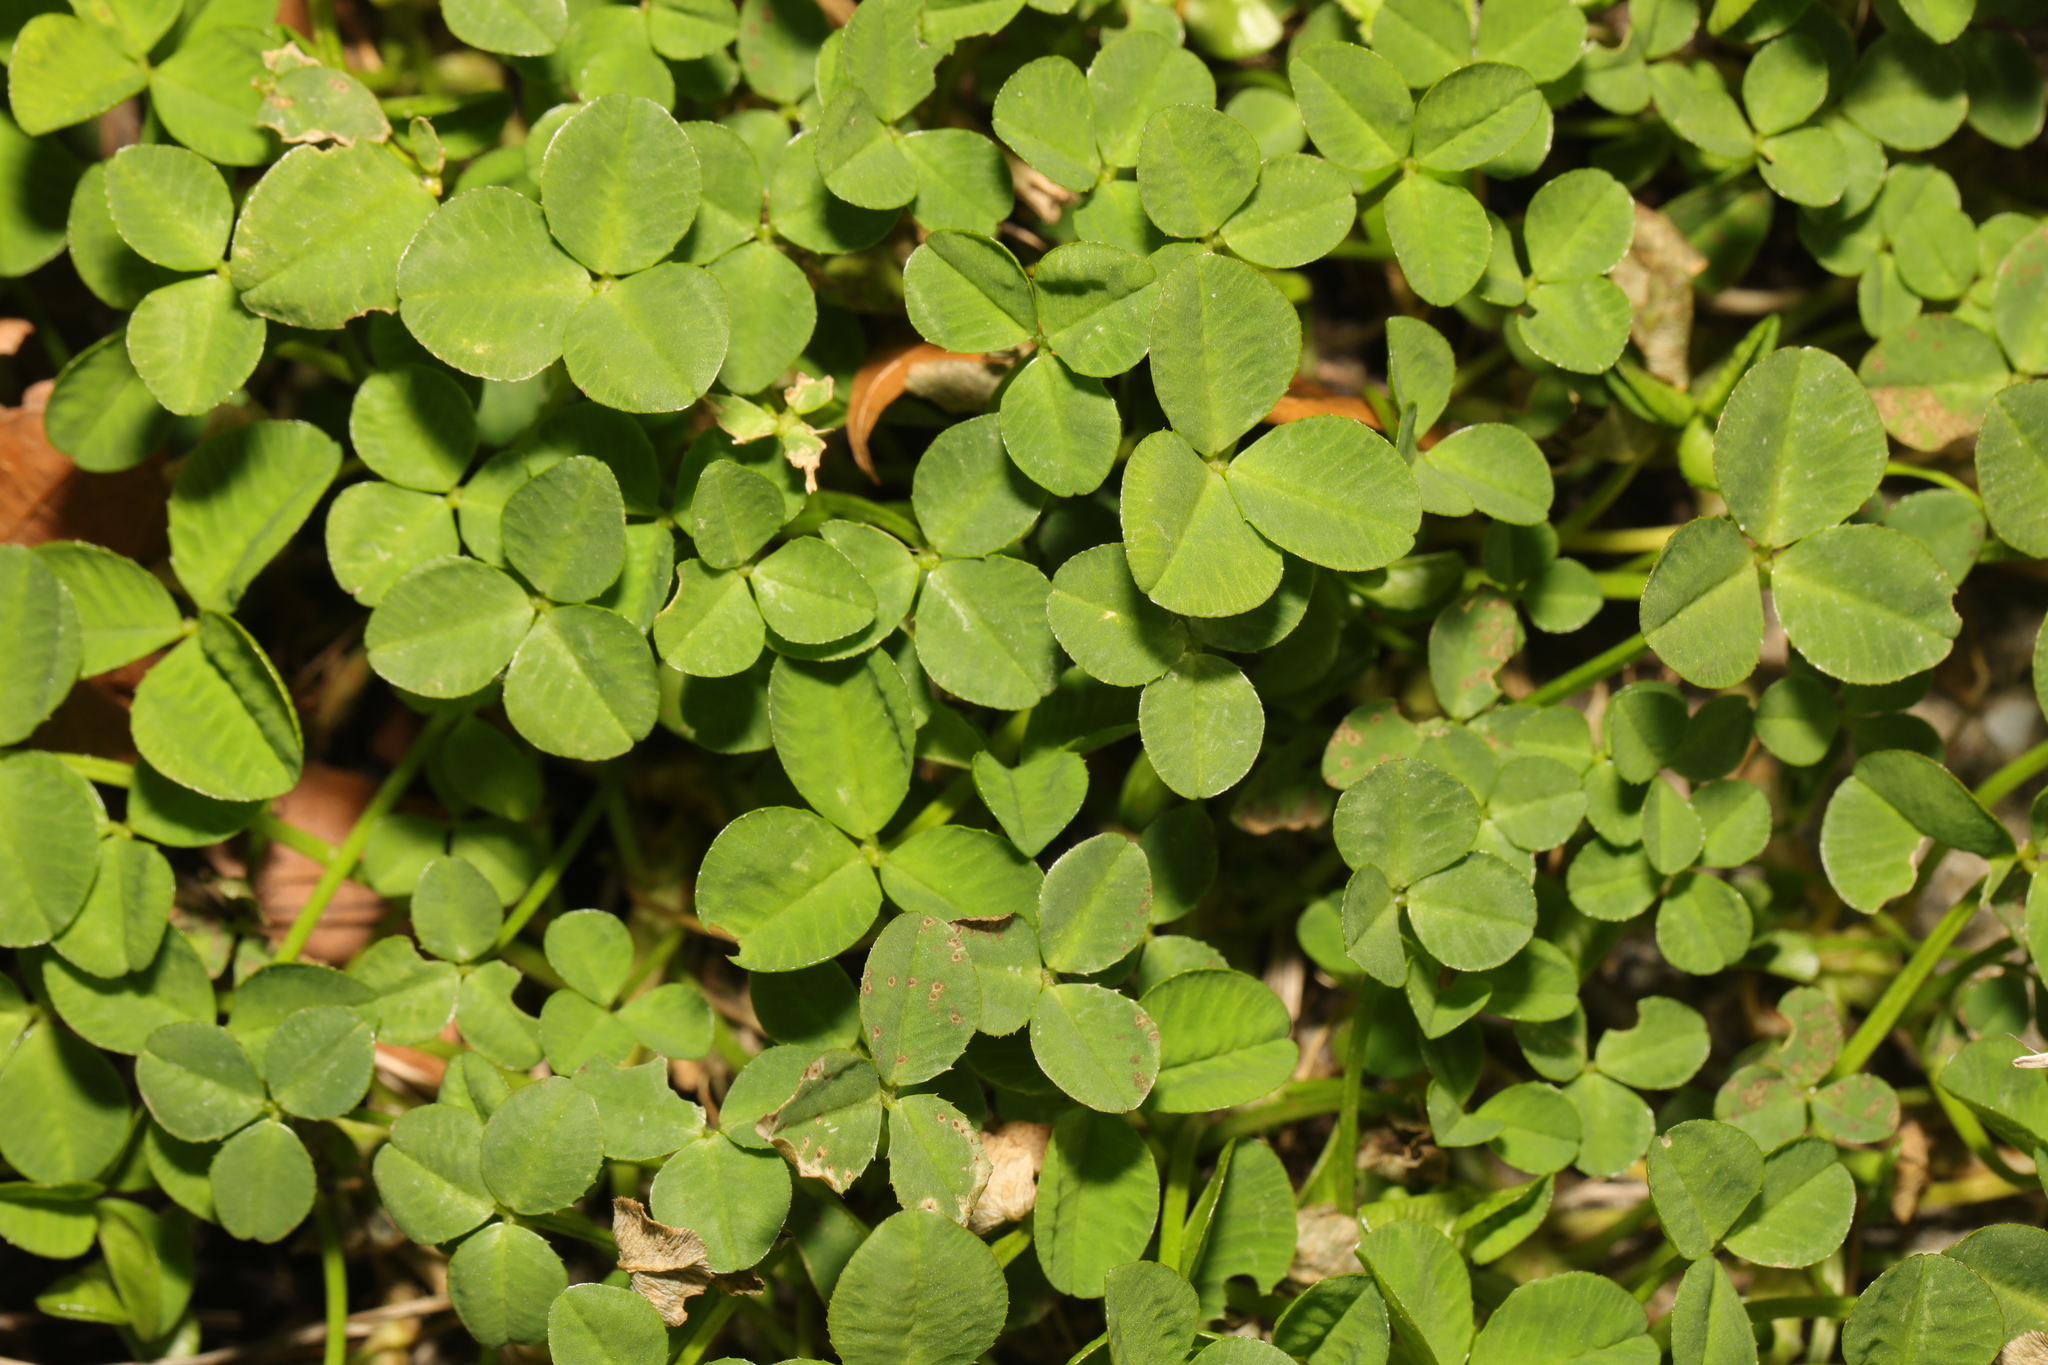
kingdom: Plantae
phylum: Tracheophyta
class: Magnoliopsida
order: Fabales
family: Fabaceae
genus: Trifolium
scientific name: Trifolium repens
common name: White clover
